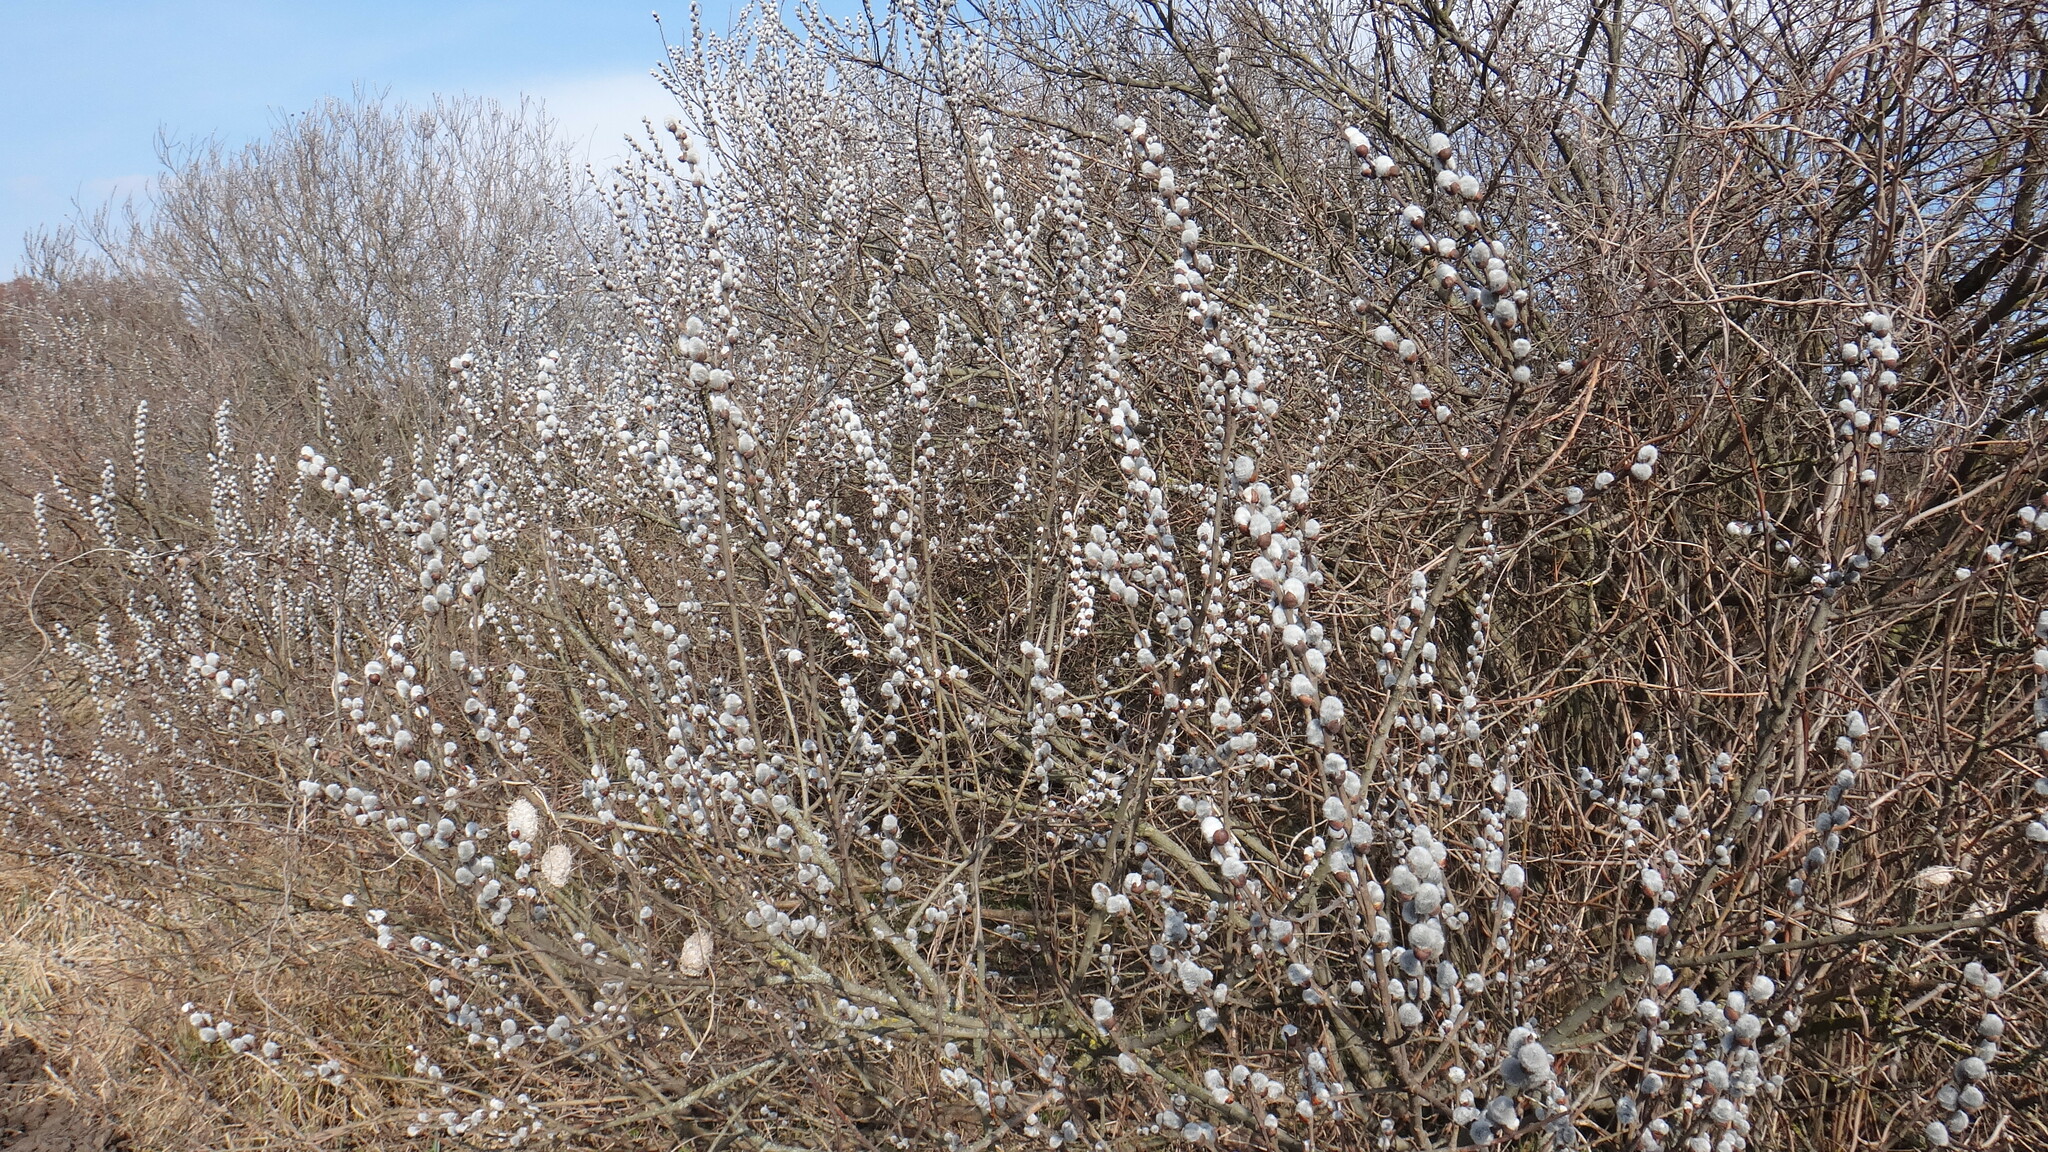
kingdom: Plantae
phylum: Tracheophyta
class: Magnoliopsida
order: Malpighiales
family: Salicaceae
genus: Salix
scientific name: Salix cinerea
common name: Common sallow
